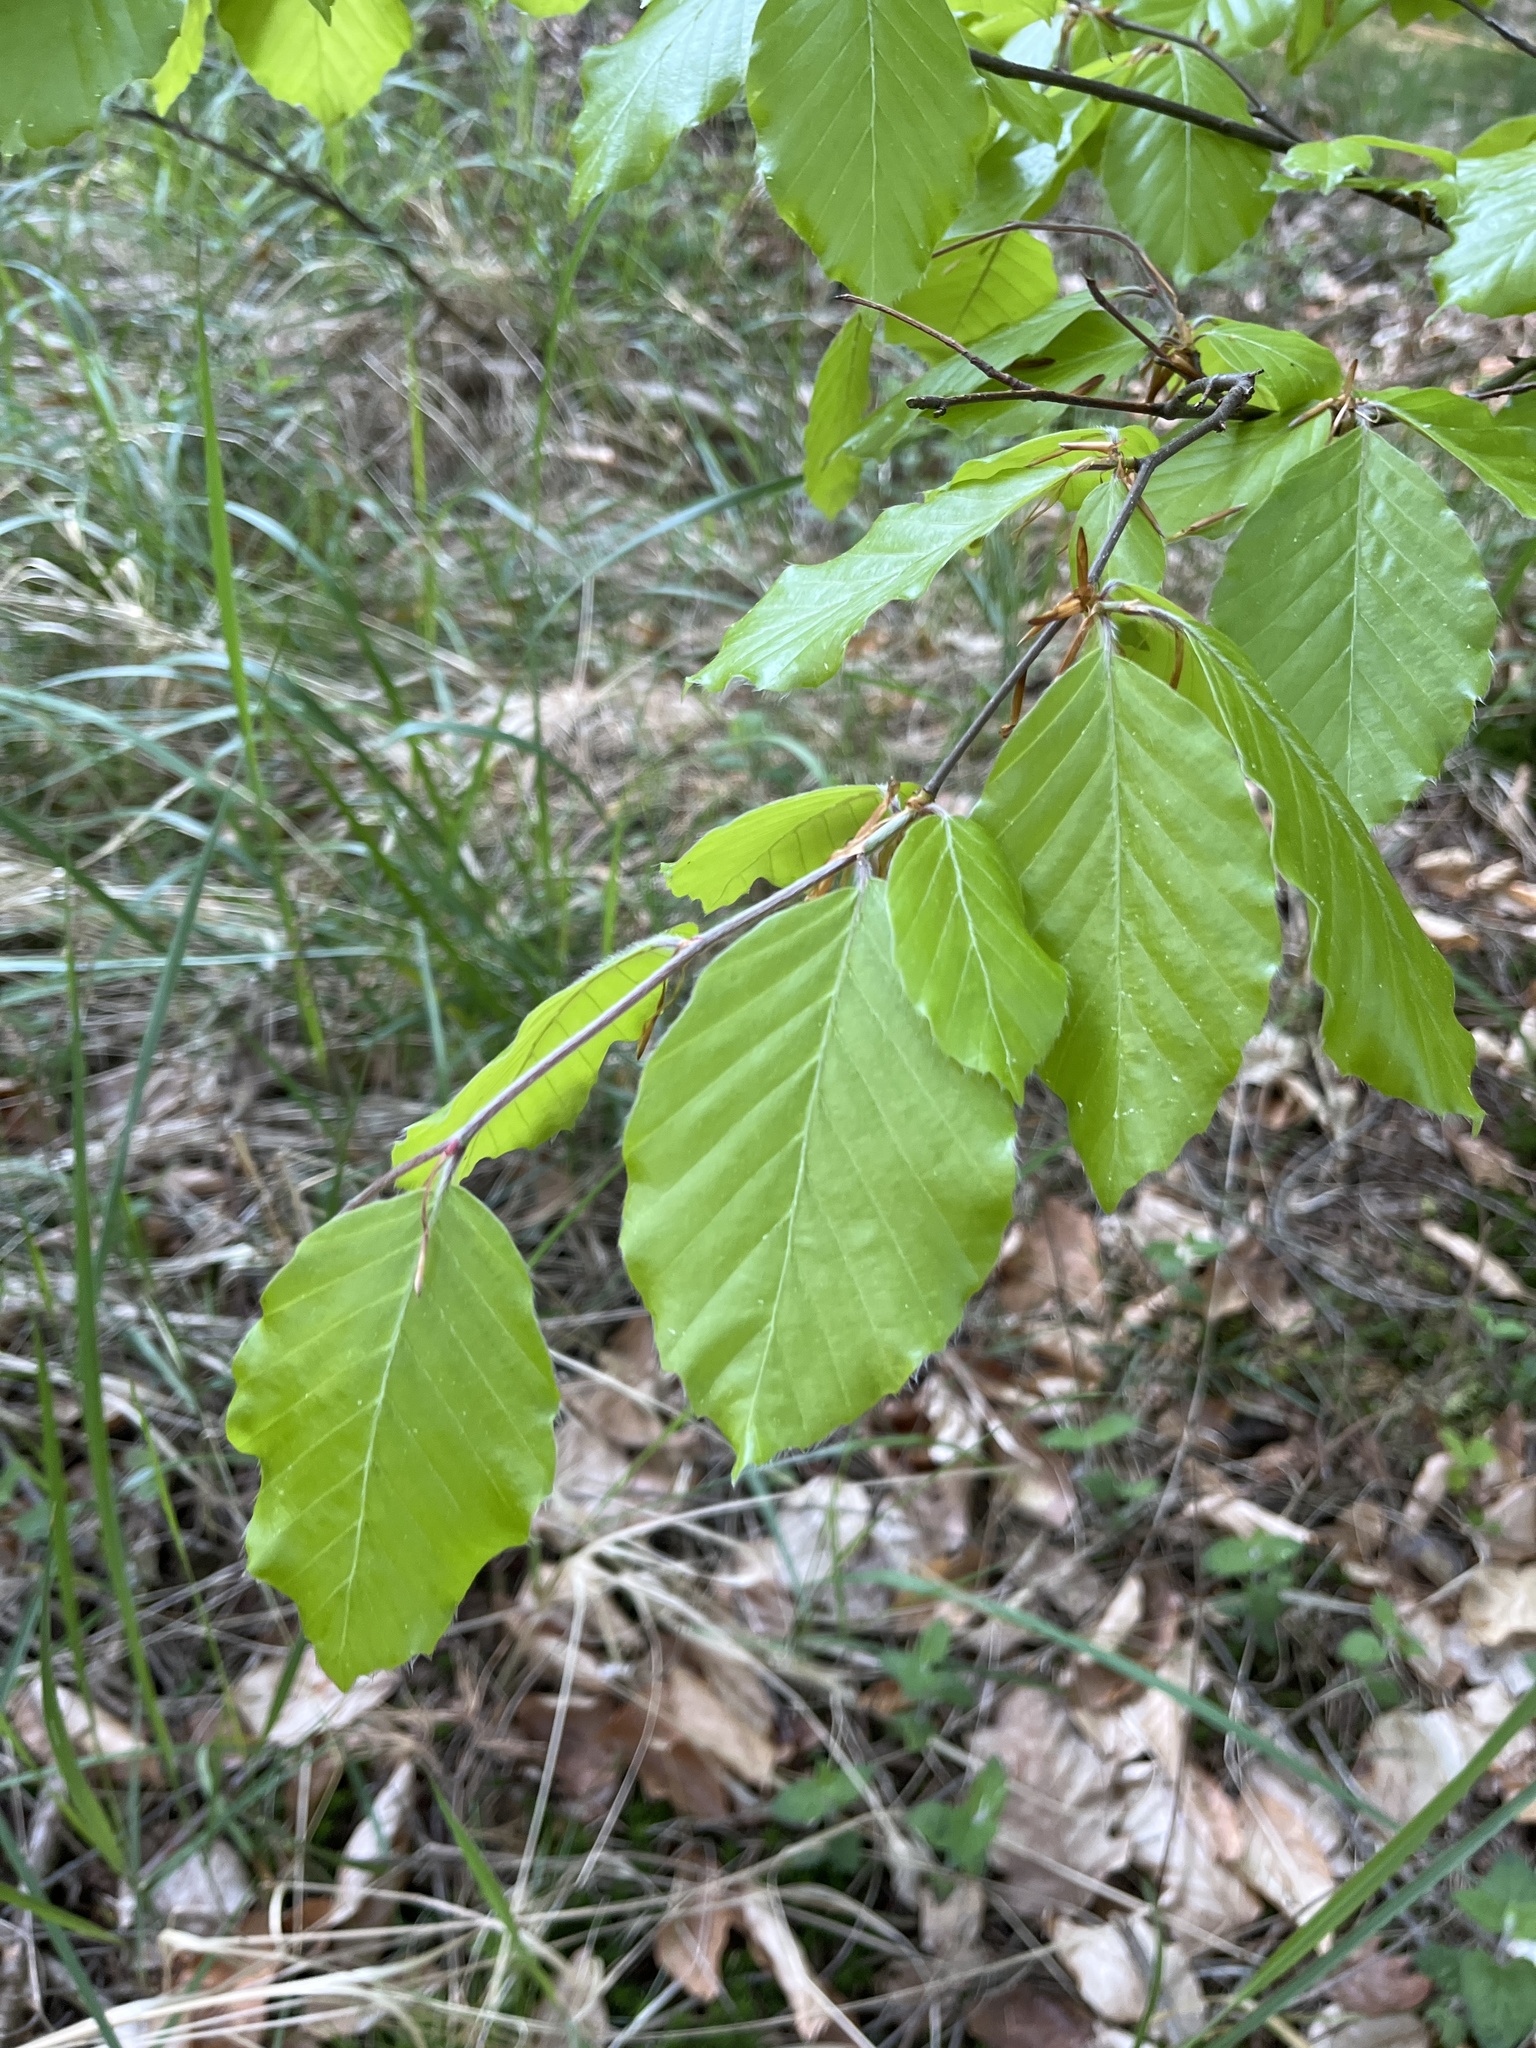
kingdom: Plantae
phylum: Tracheophyta
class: Magnoliopsida
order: Fagales
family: Fagaceae
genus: Fagus
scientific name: Fagus sylvatica
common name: Beech
